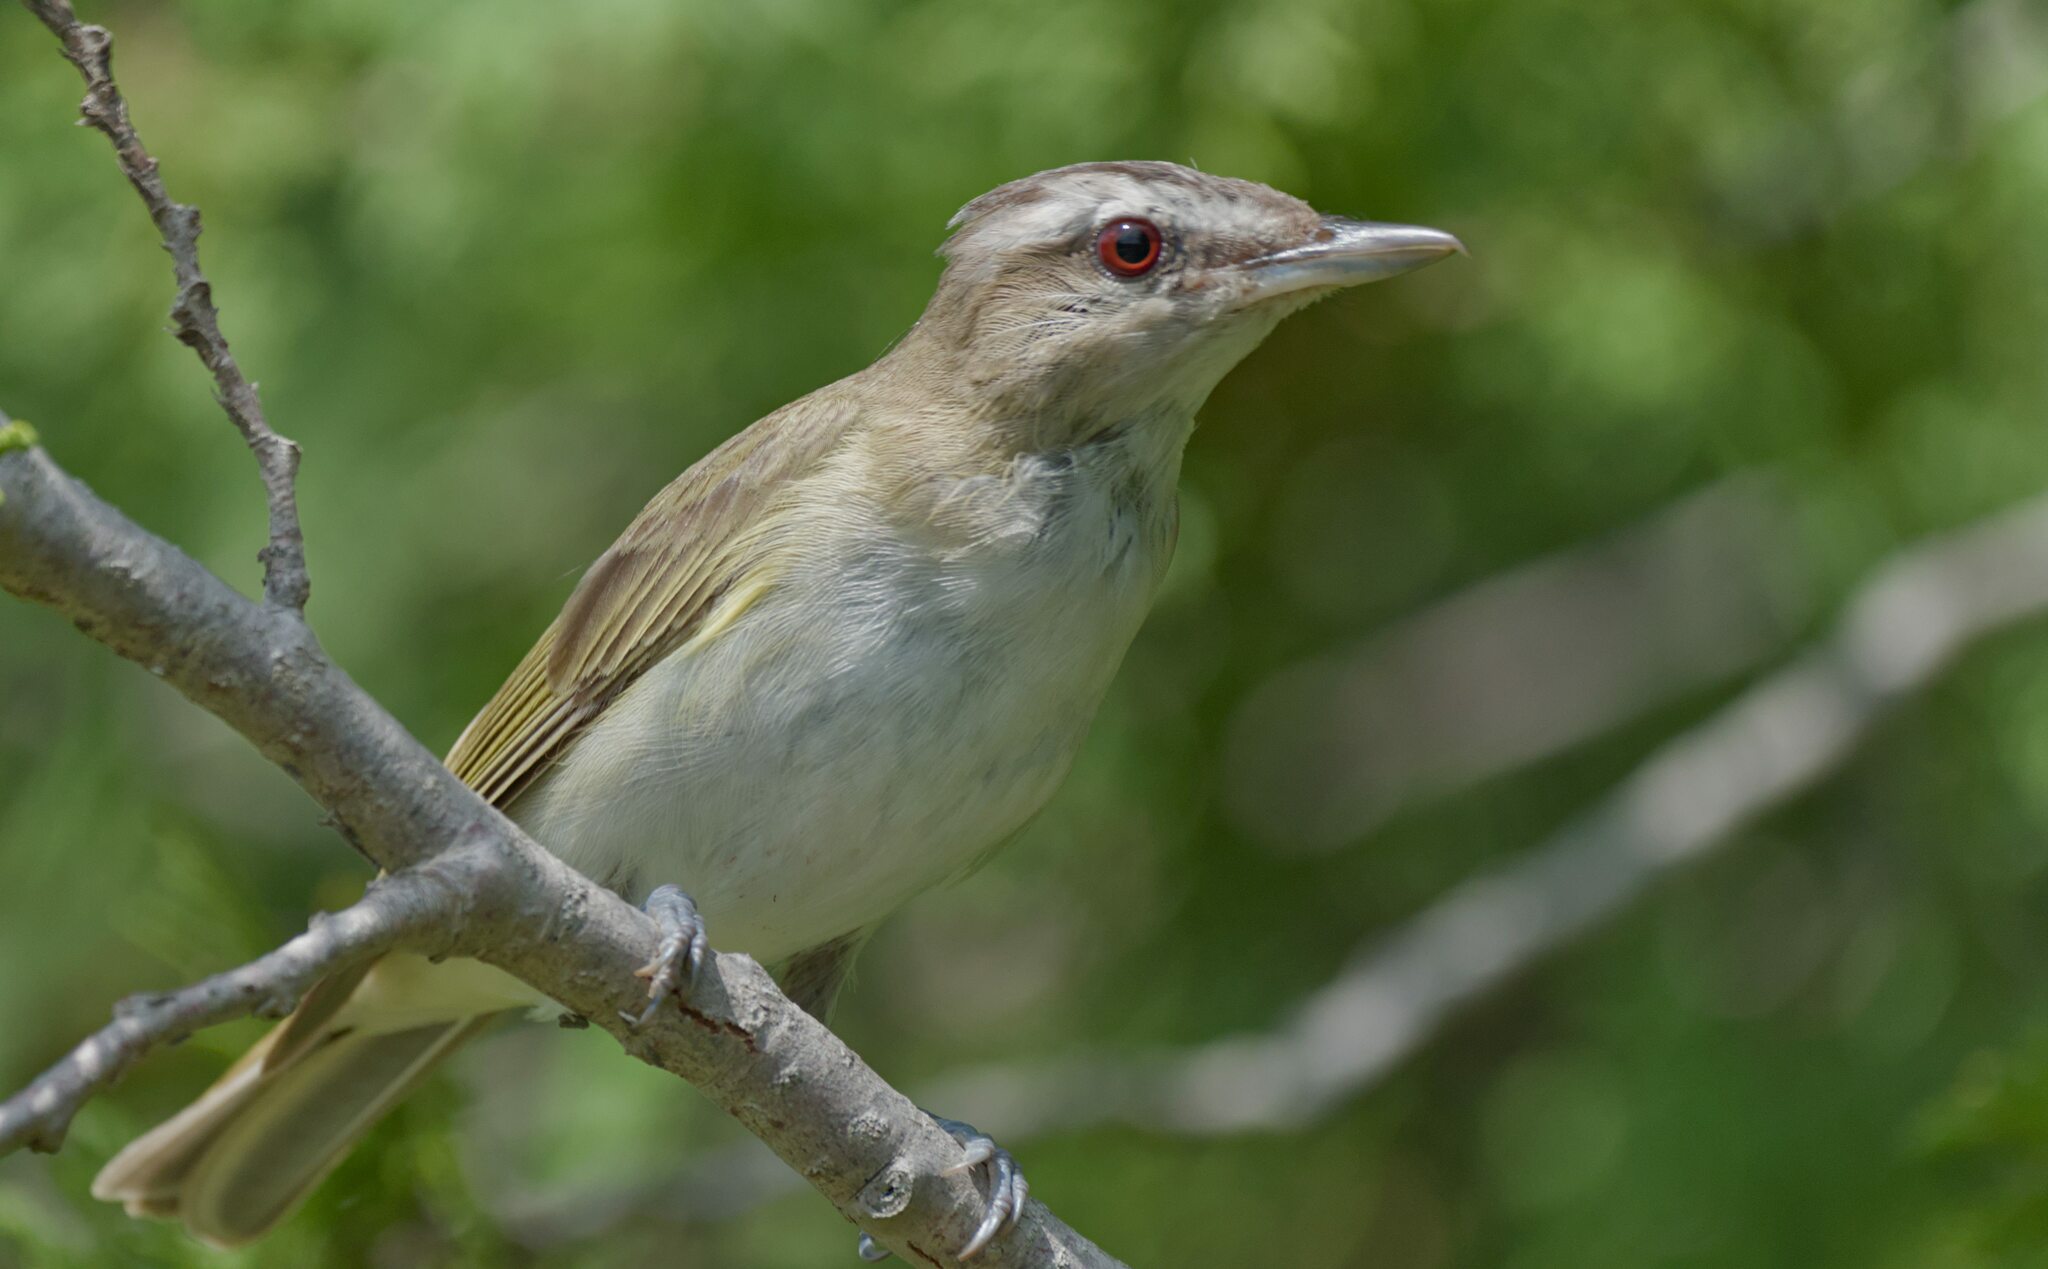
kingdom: Animalia
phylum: Chordata
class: Aves
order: Passeriformes
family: Vireonidae
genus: Vireo
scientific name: Vireo olivaceus
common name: Red-eyed vireo
